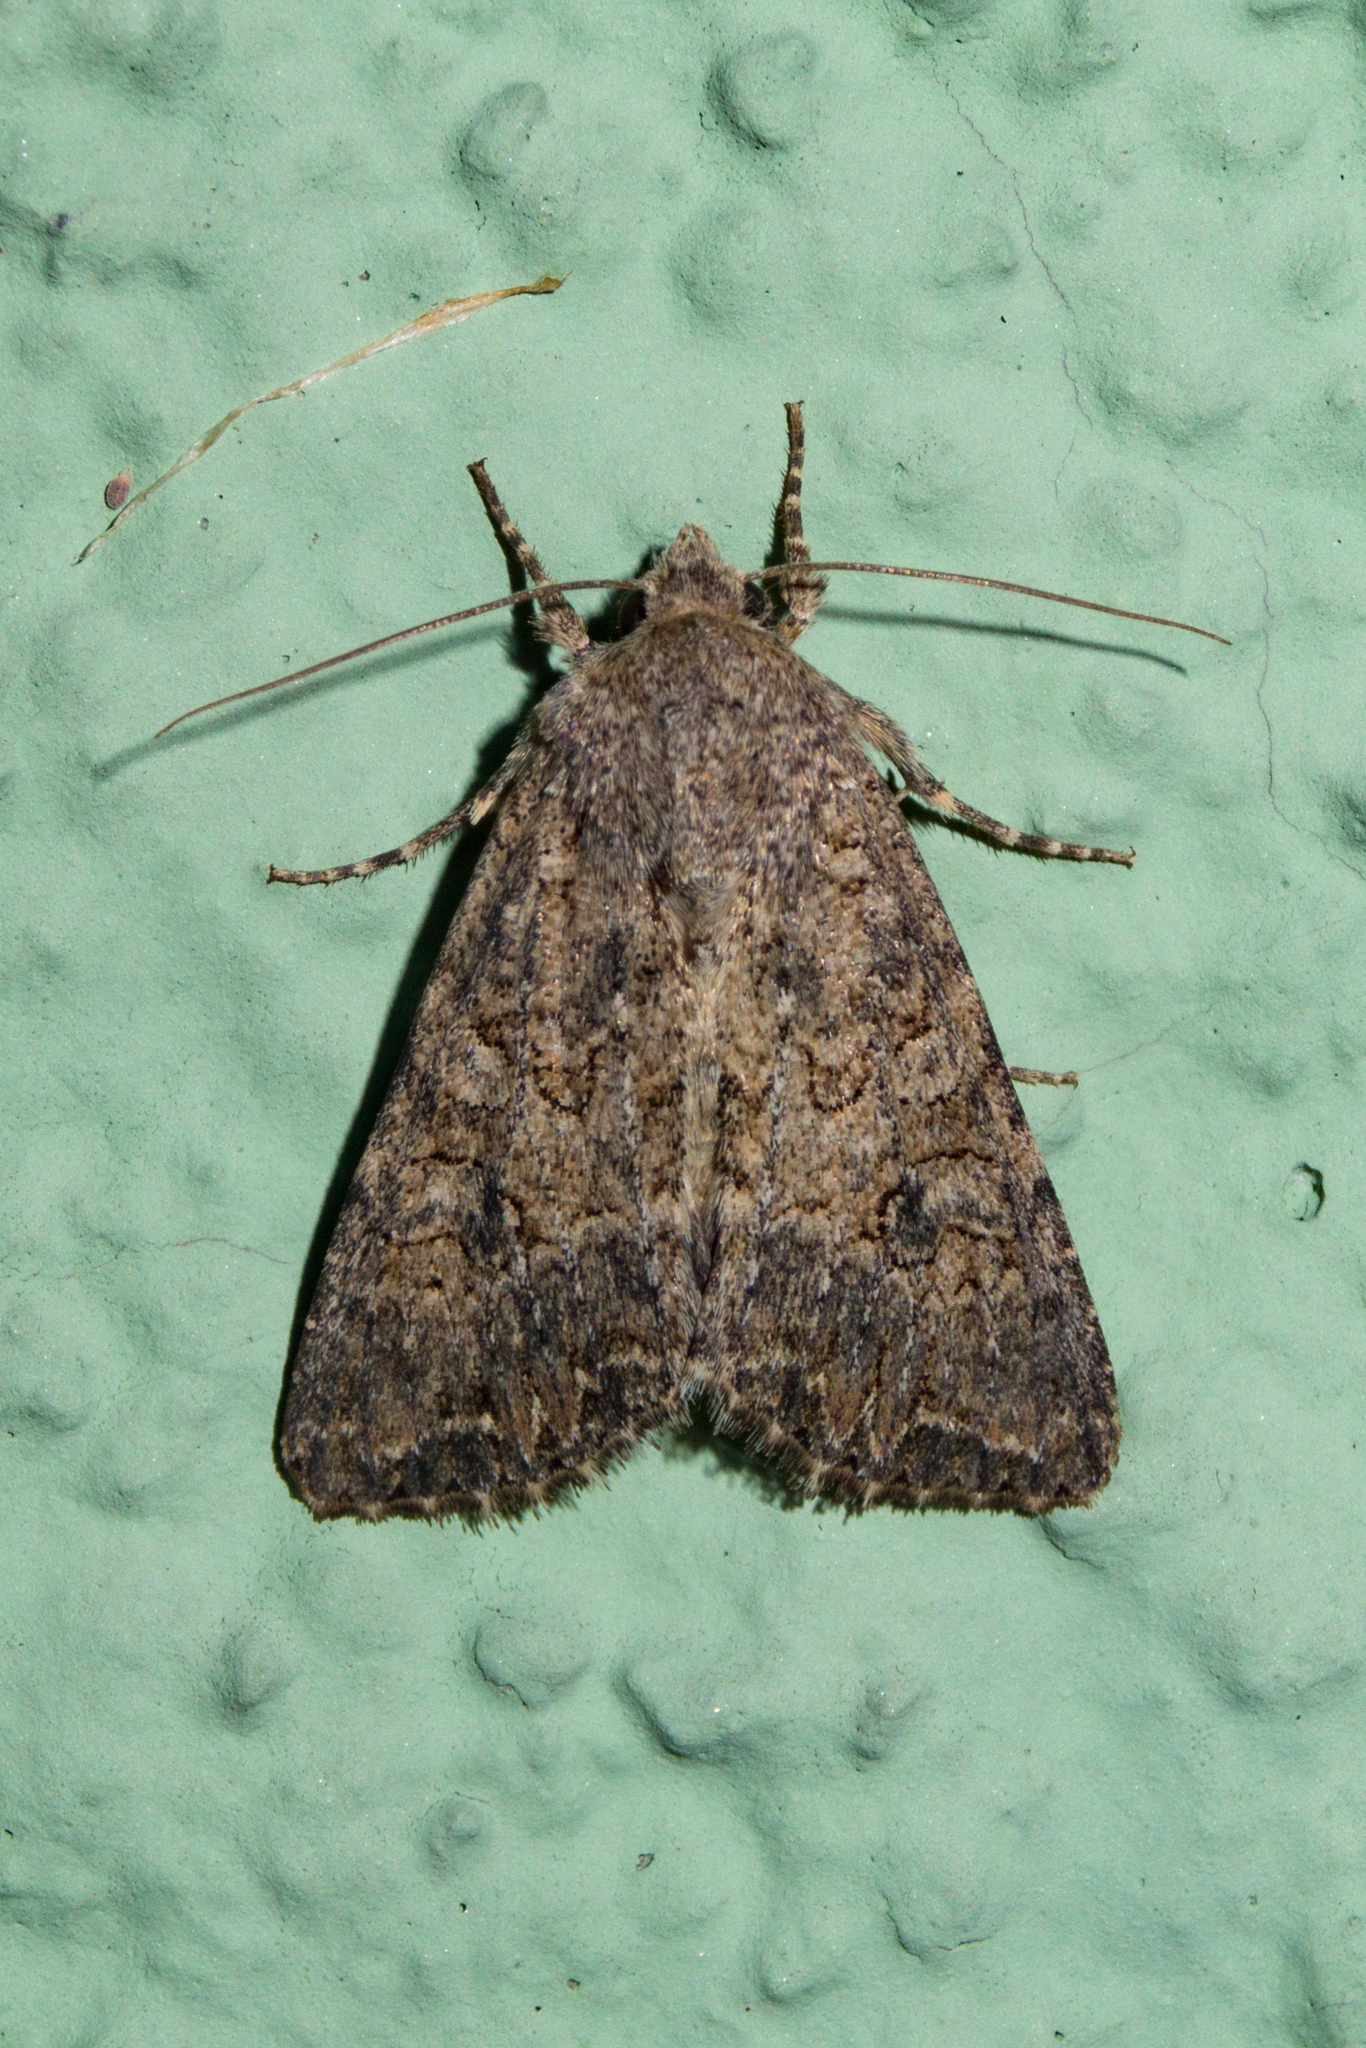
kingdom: Animalia
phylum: Arthropoda
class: Insecta
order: Lepidoptera
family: Noctuidae
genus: Anarta
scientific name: Anarta trifolii
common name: Clover cutworm moth
